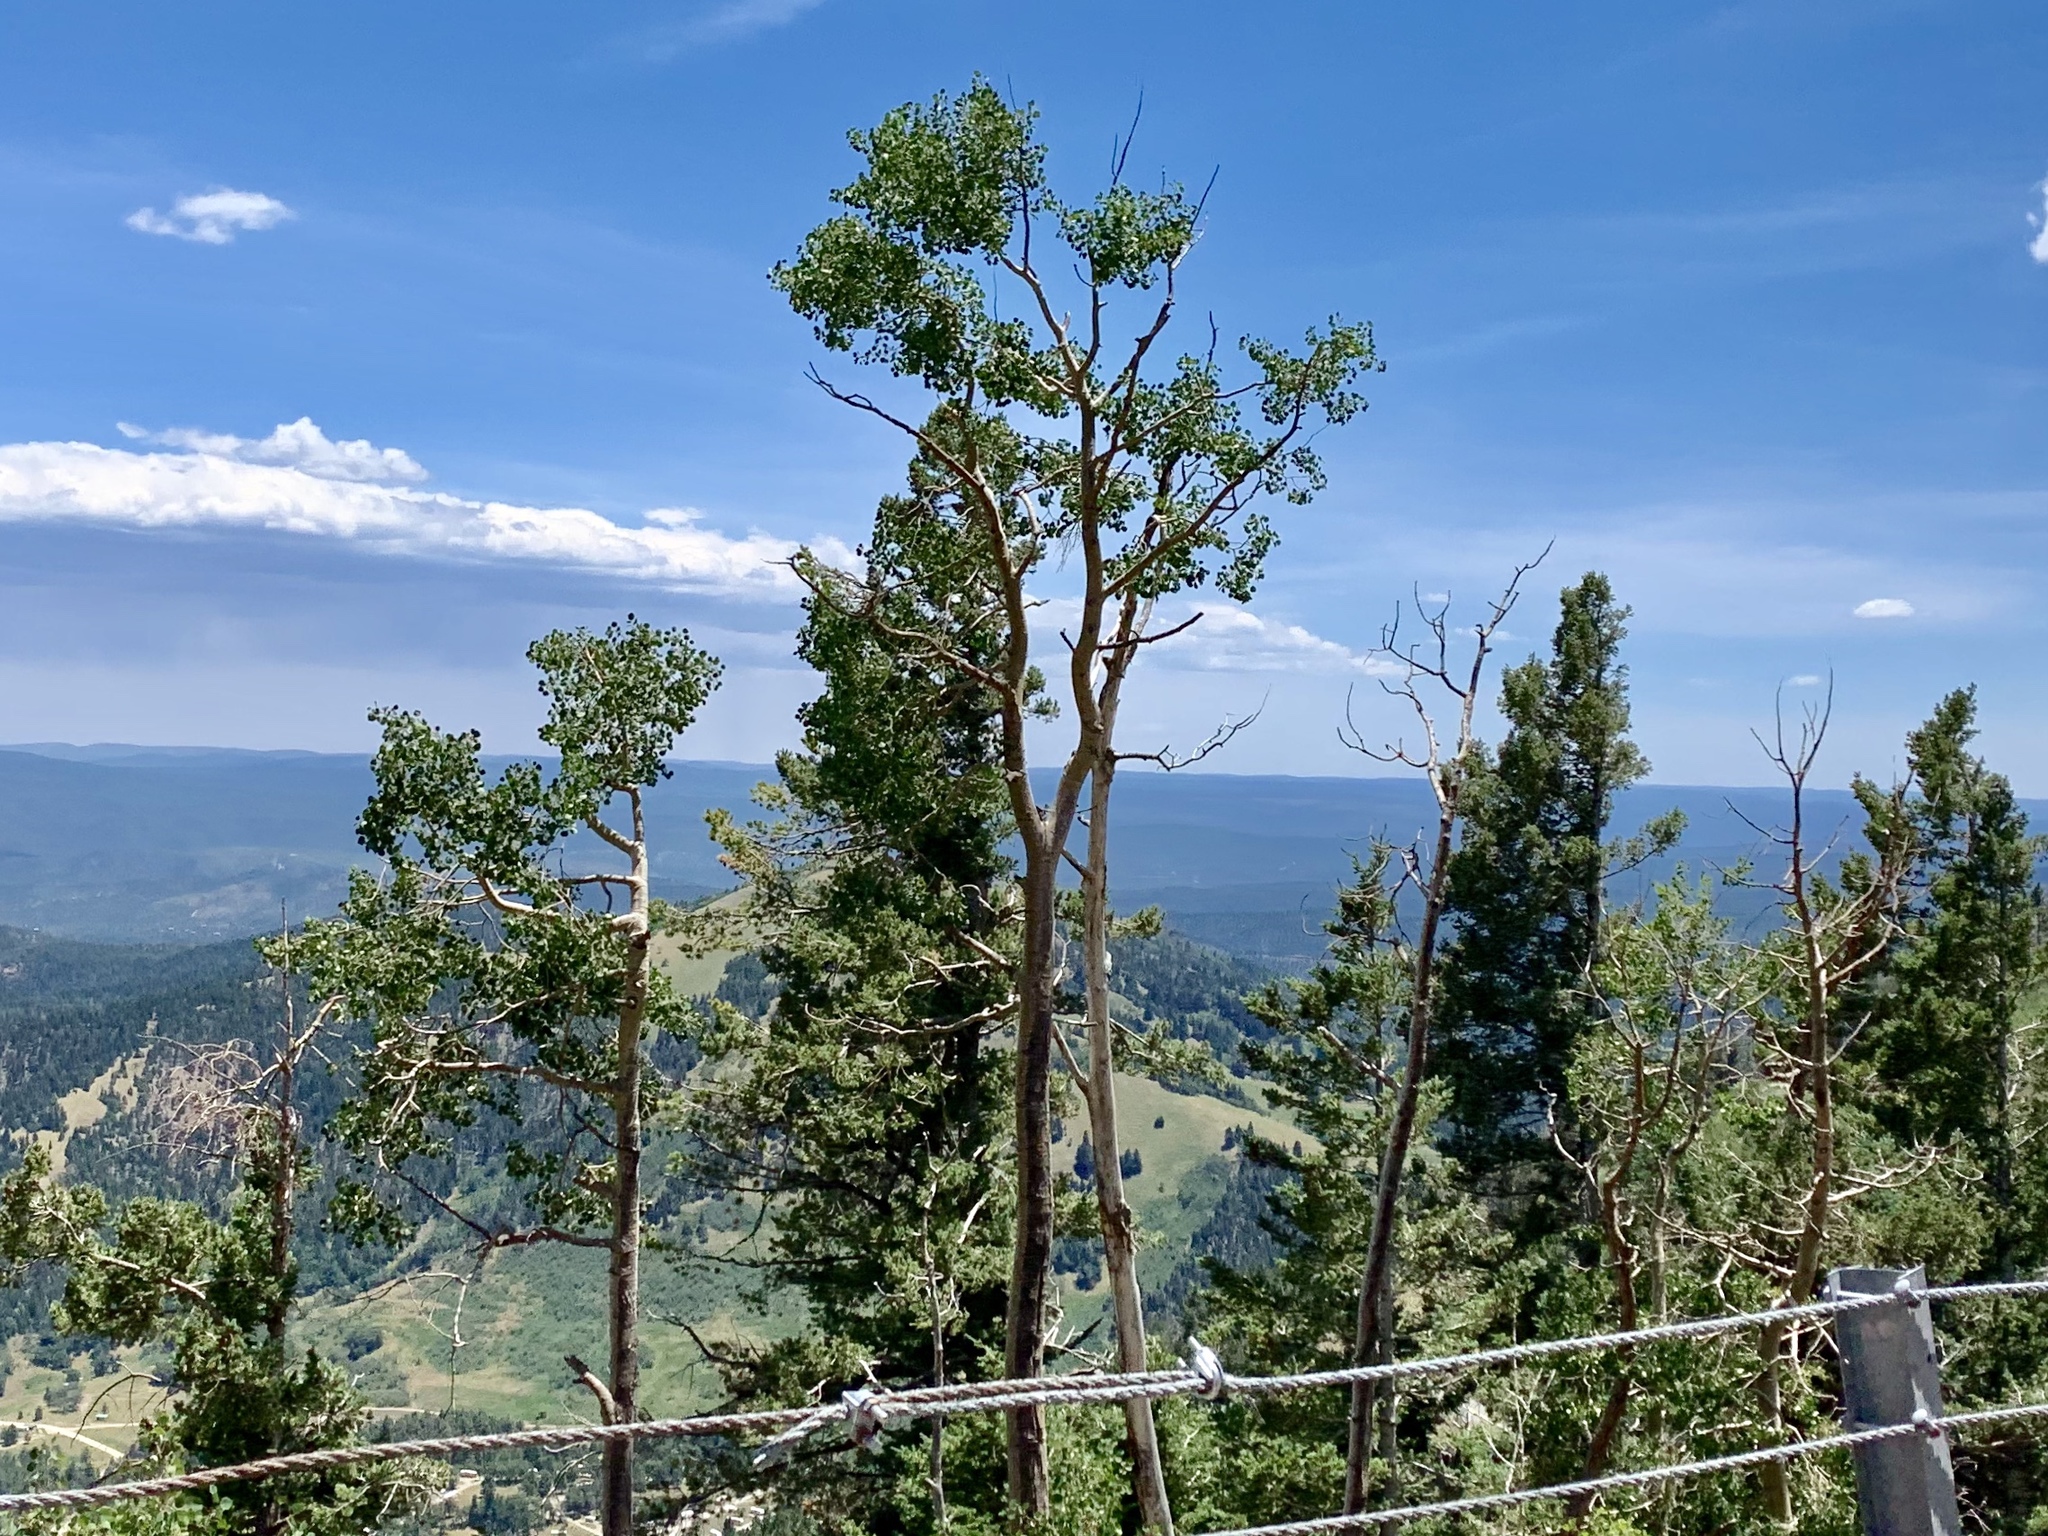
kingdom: Plantae
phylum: Tracheophyta
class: Magnoliopsida
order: Malpighiales
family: Salicaceae
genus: Populus
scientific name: Populus tremuloides
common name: Quaking aspen
